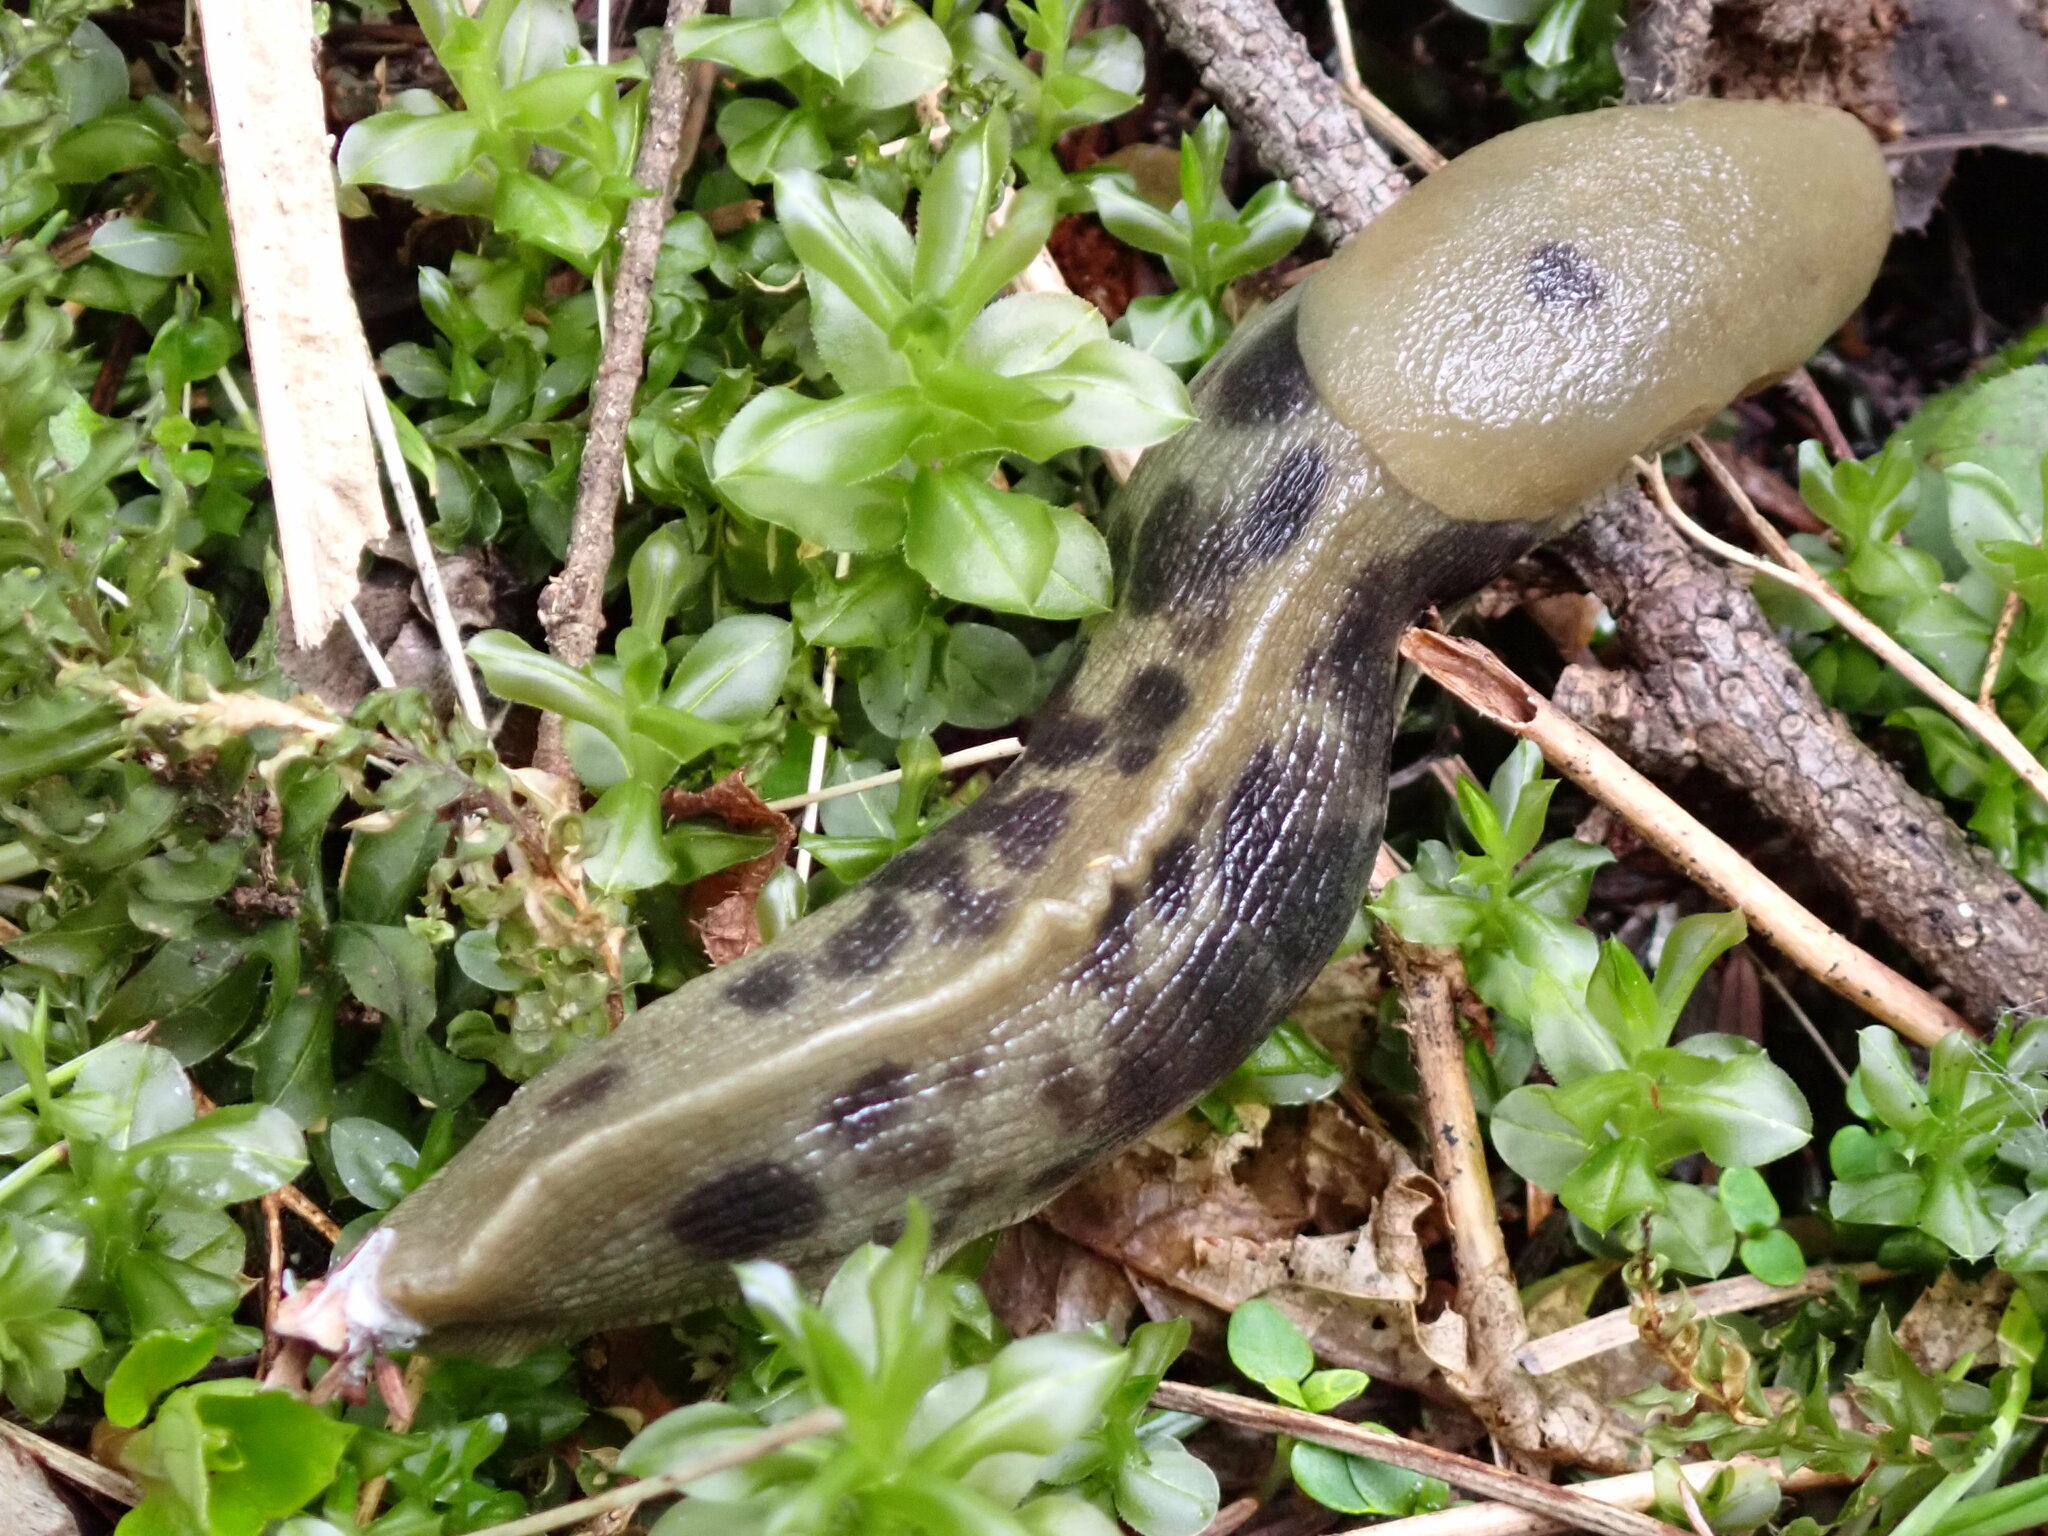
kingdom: Animalia
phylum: Mollusca
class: Gastropoda
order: Stylommatophora
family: Ariolimacidae
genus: Ariolimax
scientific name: Ariolimax columbianus
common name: Pacific banana slug
